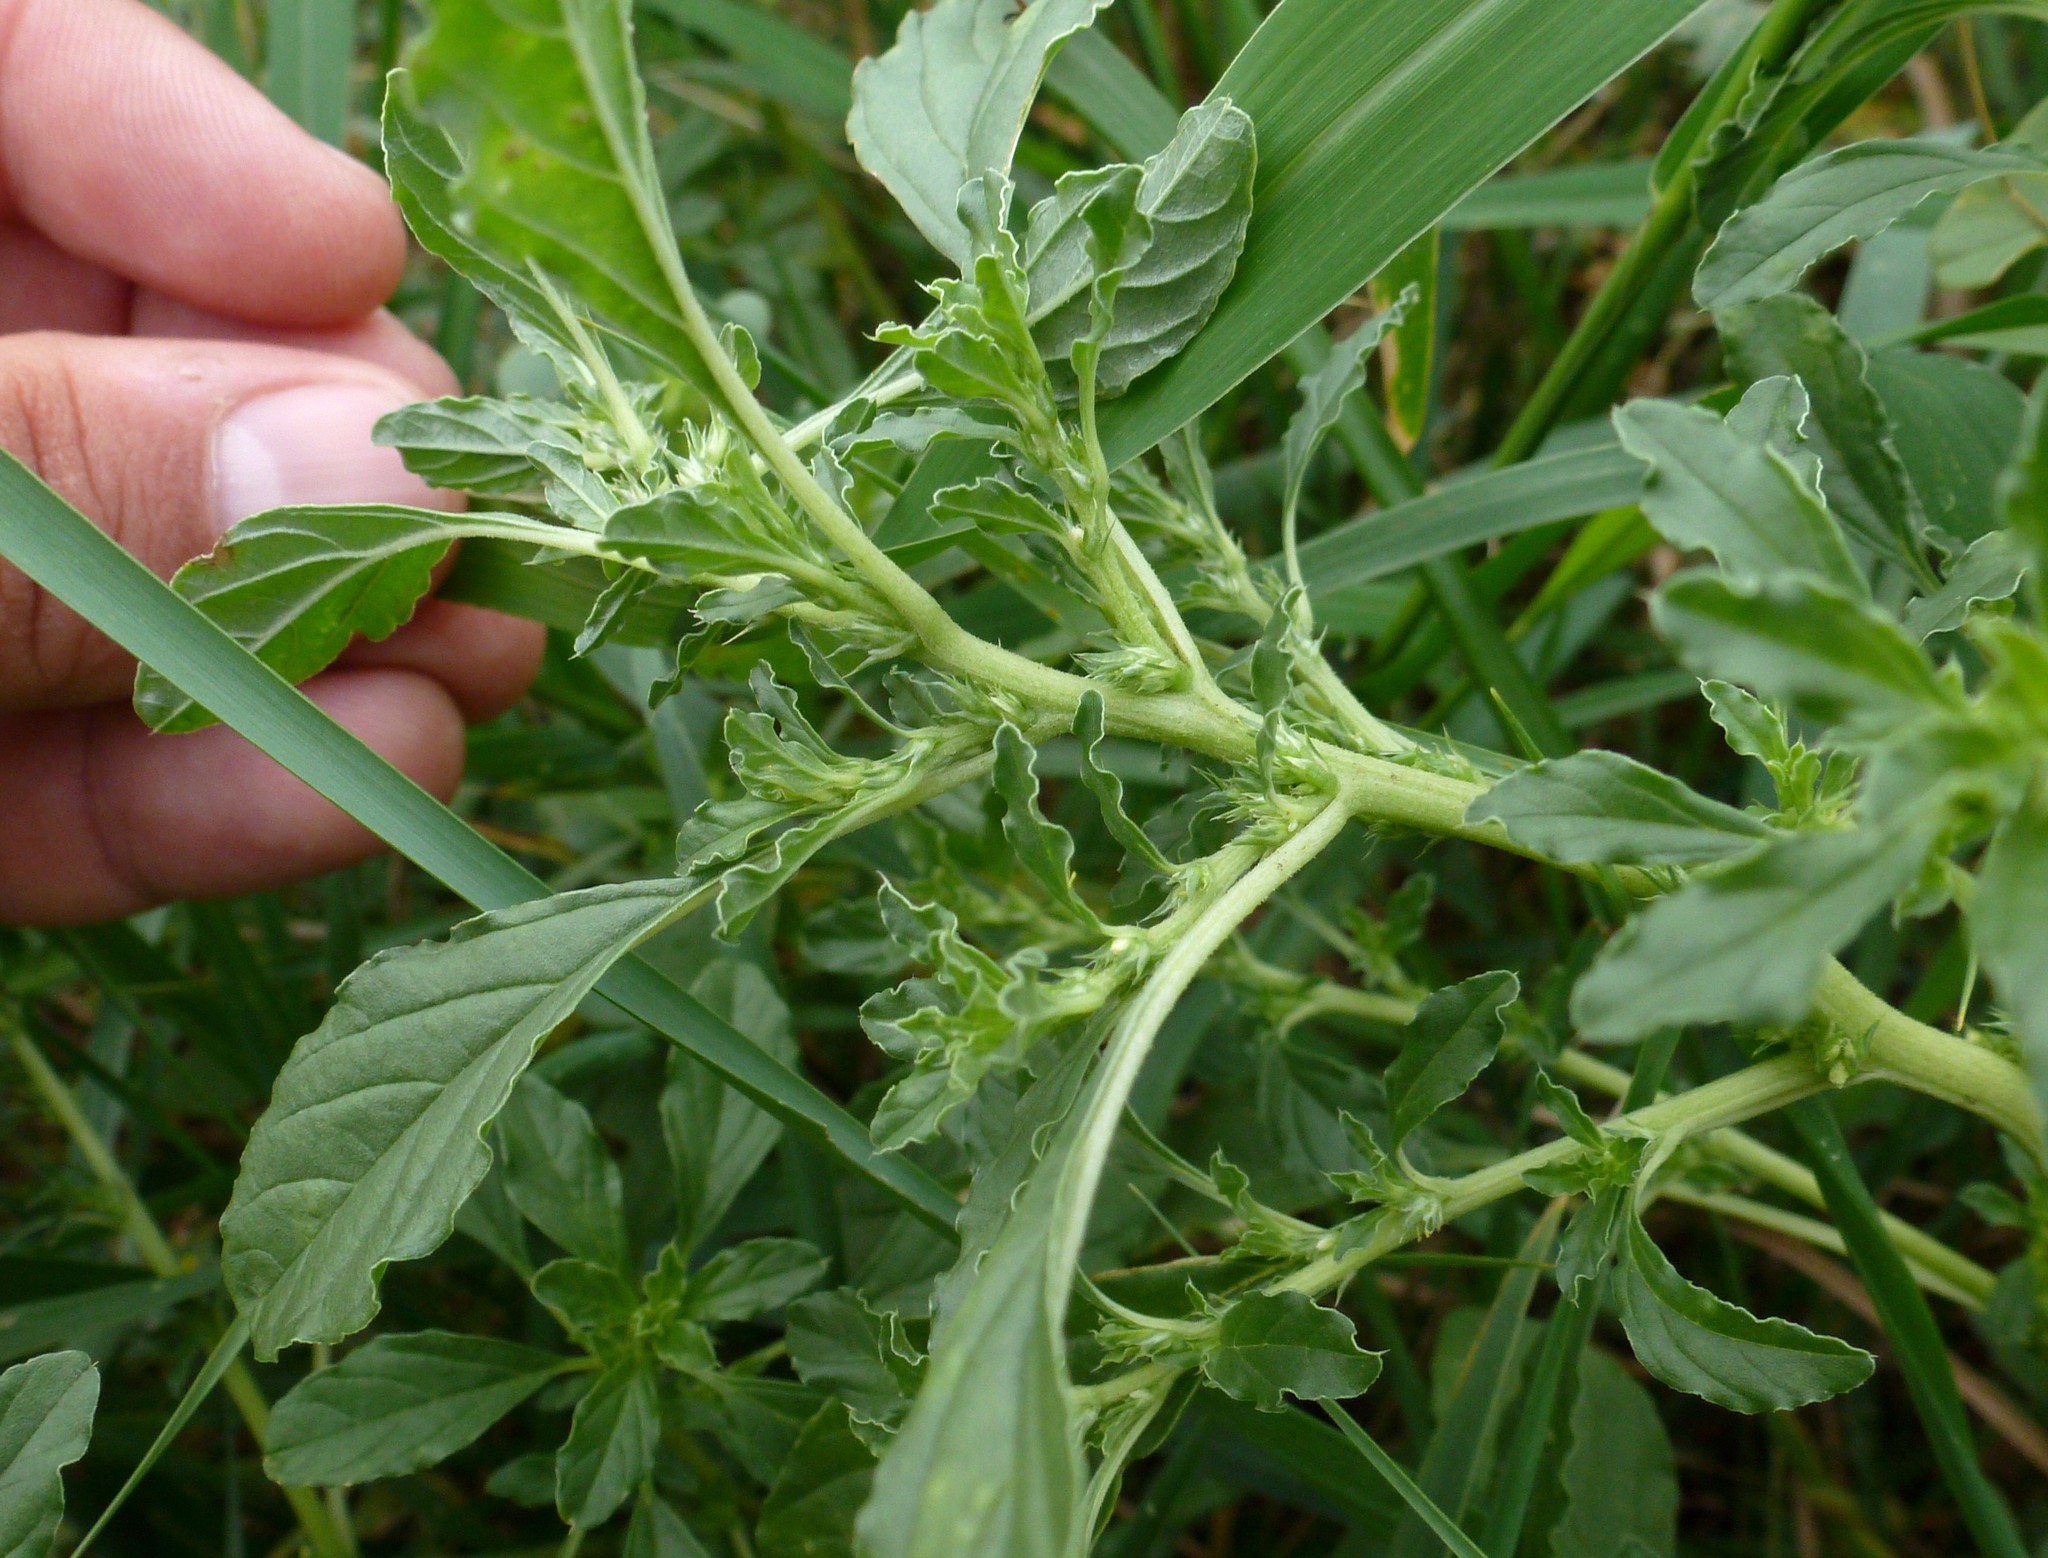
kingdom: Plantae
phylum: Tracheophyta
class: Magnoliopsida
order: Caryophyllales
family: Amaranthaceae
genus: Amaranthus
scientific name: Amaranthus albus
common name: White pigweed
